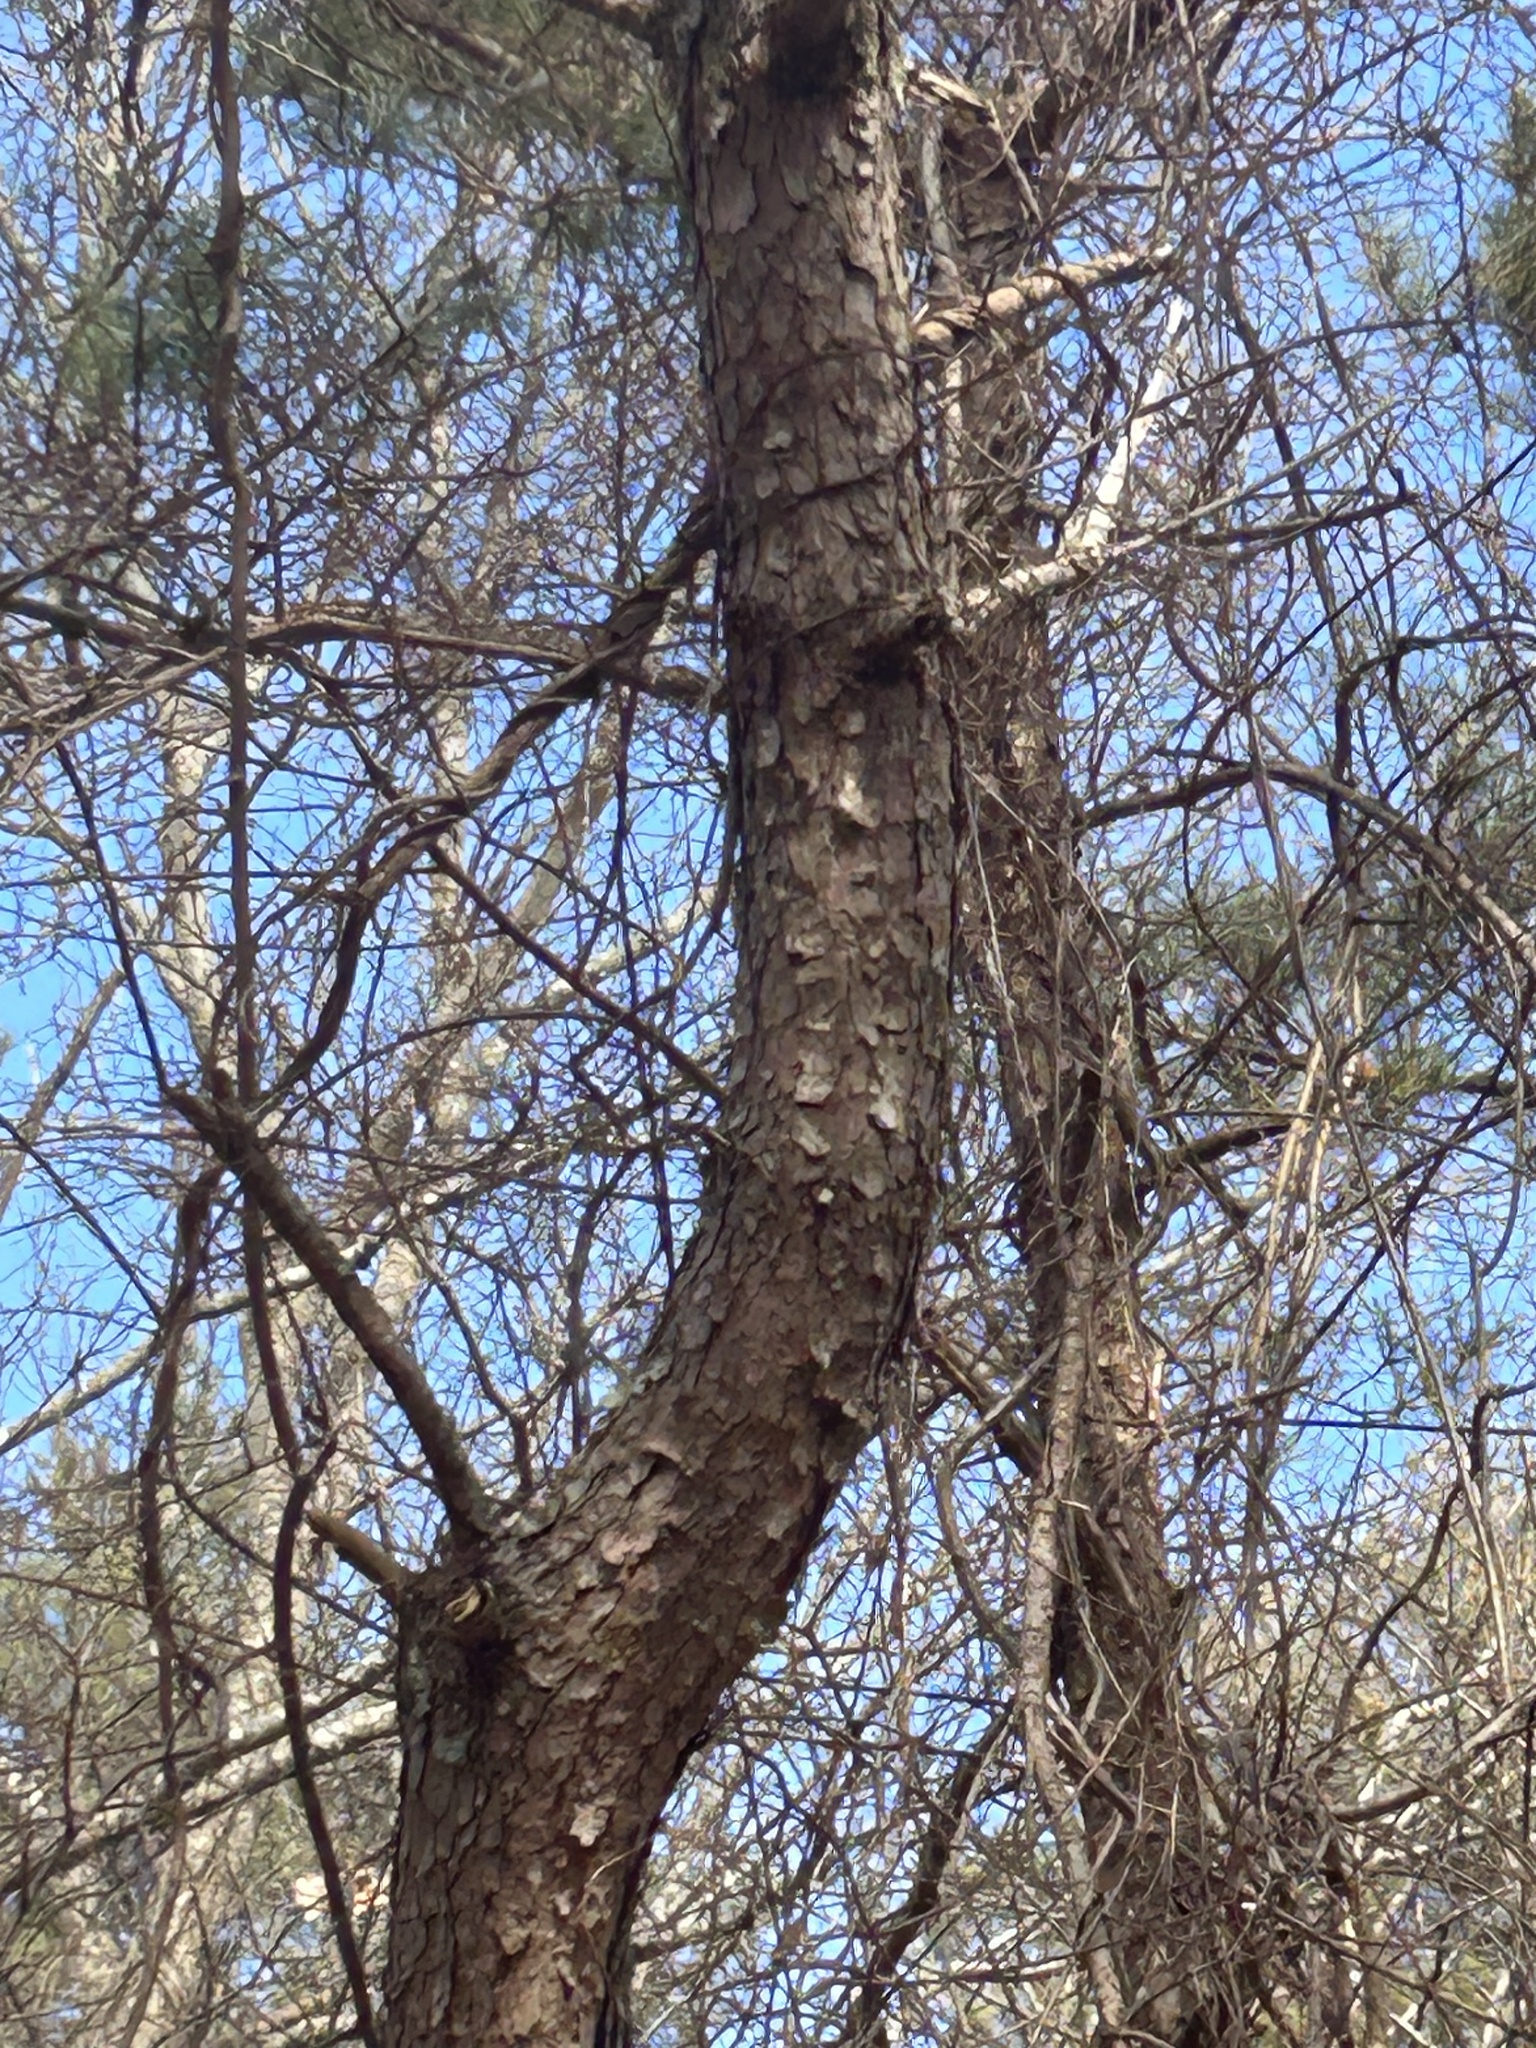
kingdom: Plantae
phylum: Tracheophyta
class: Pinopsida
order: Pinales
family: Pinaceae
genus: Pinus
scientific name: Pinus rigida
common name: Pitch pine
